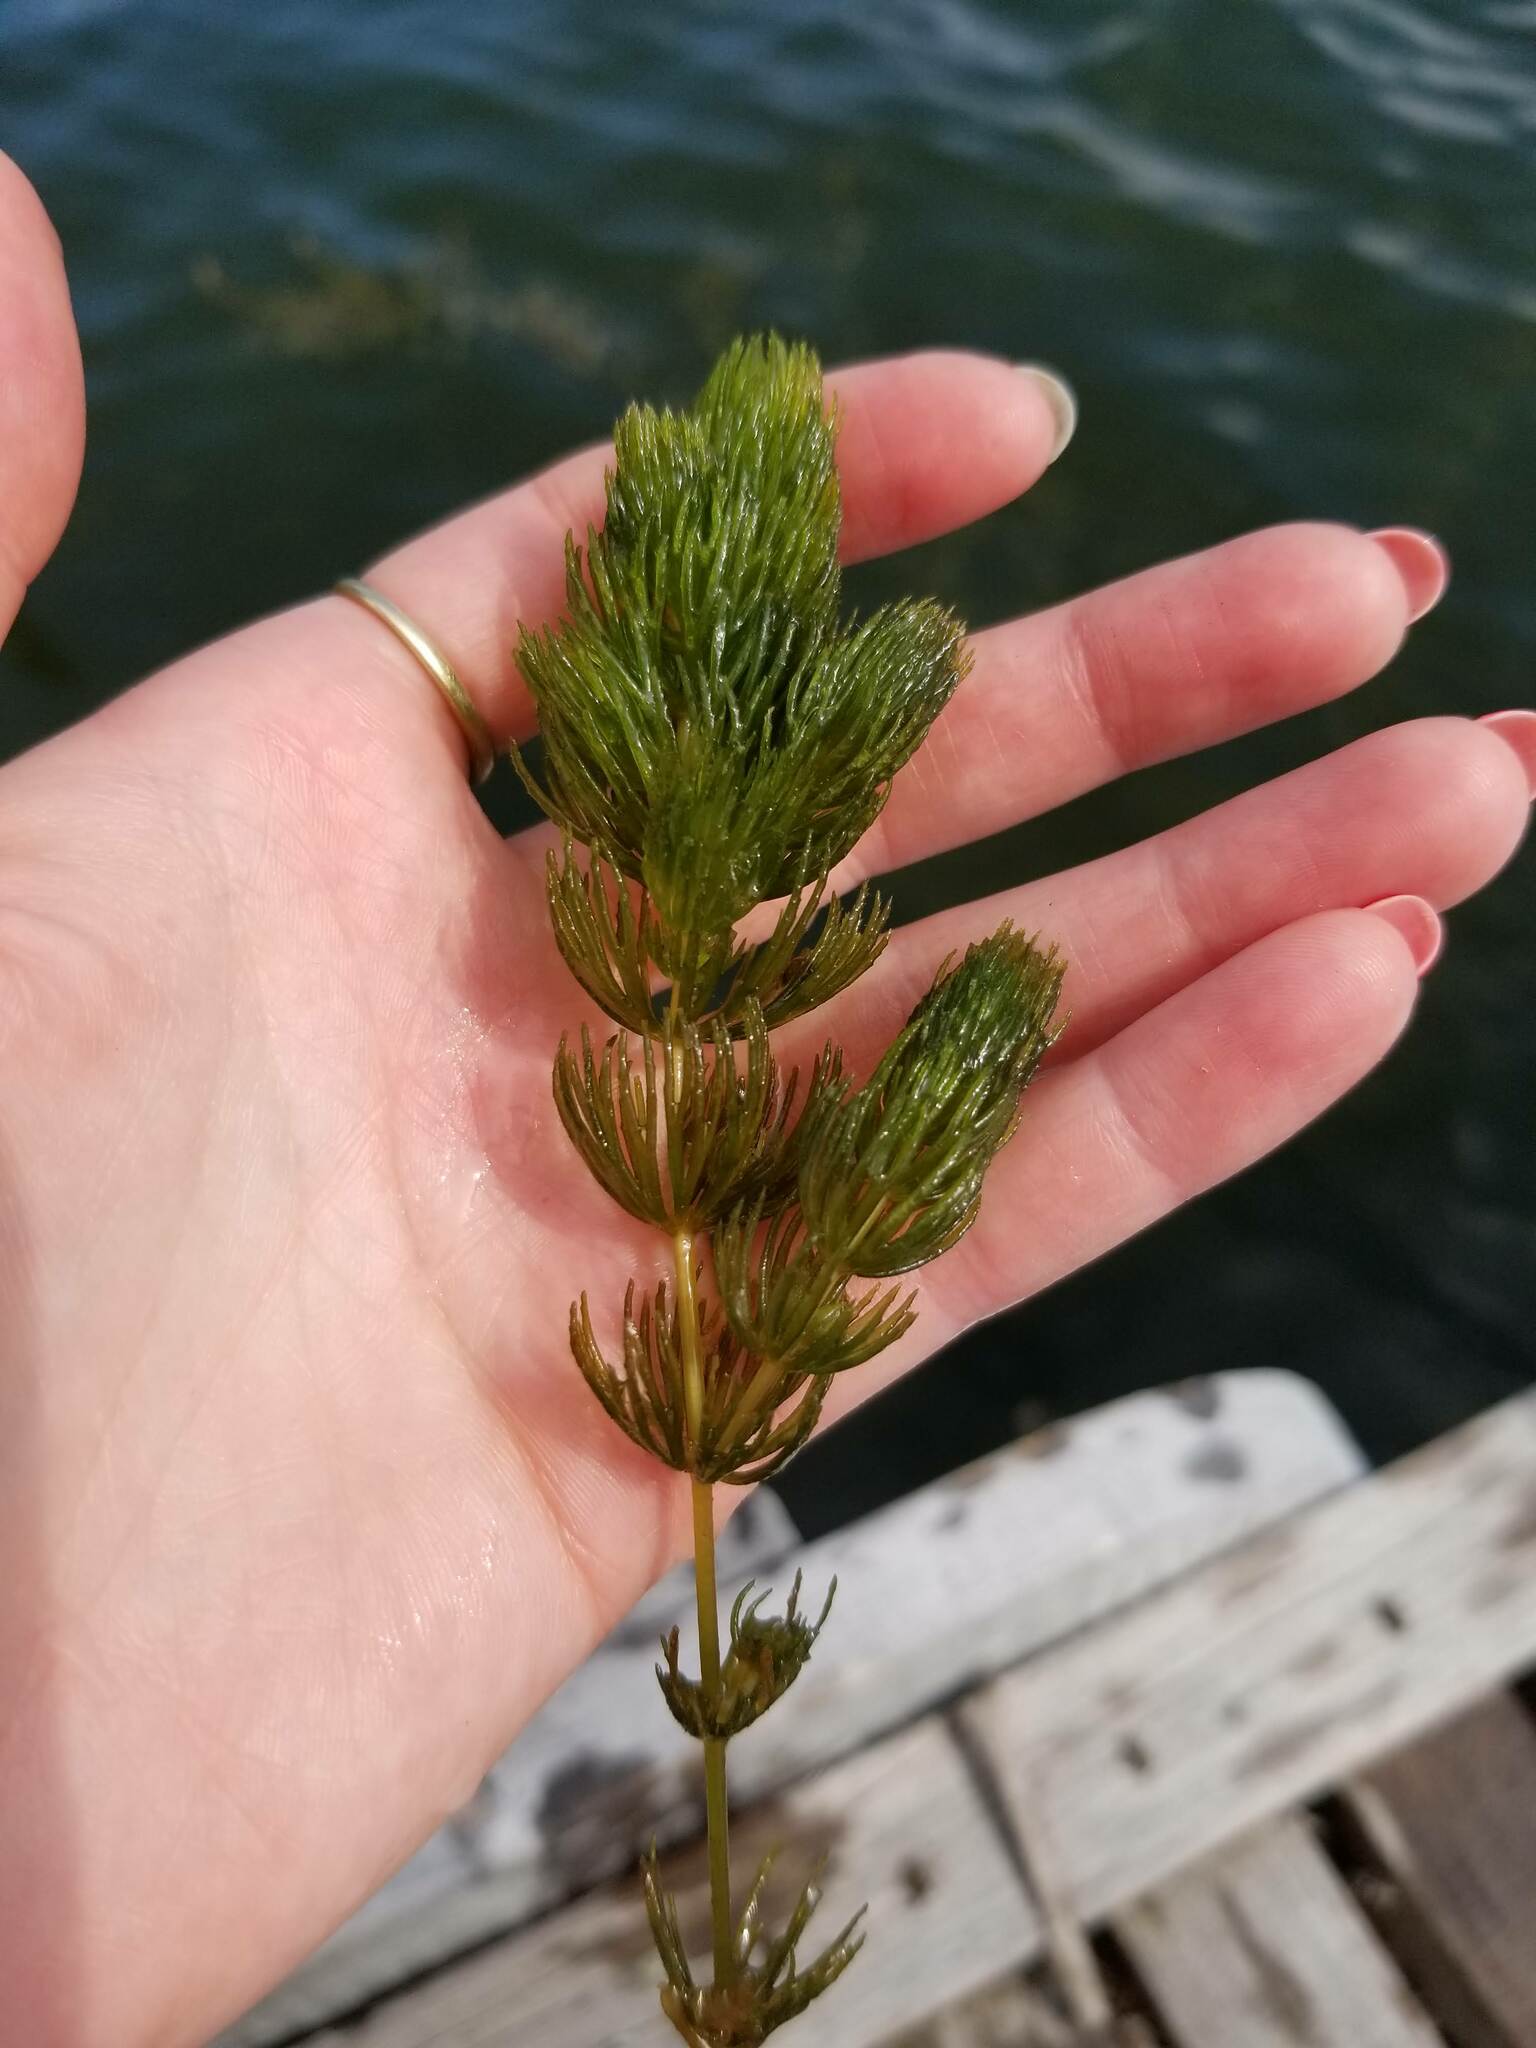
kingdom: Plantae
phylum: Tracheophyta
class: Magnoliopsida
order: Ceratophyllales
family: Ceratophyllaceae
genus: Ceratophyllum
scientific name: Ceratophyllum demersum
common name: Rigid hornwort
